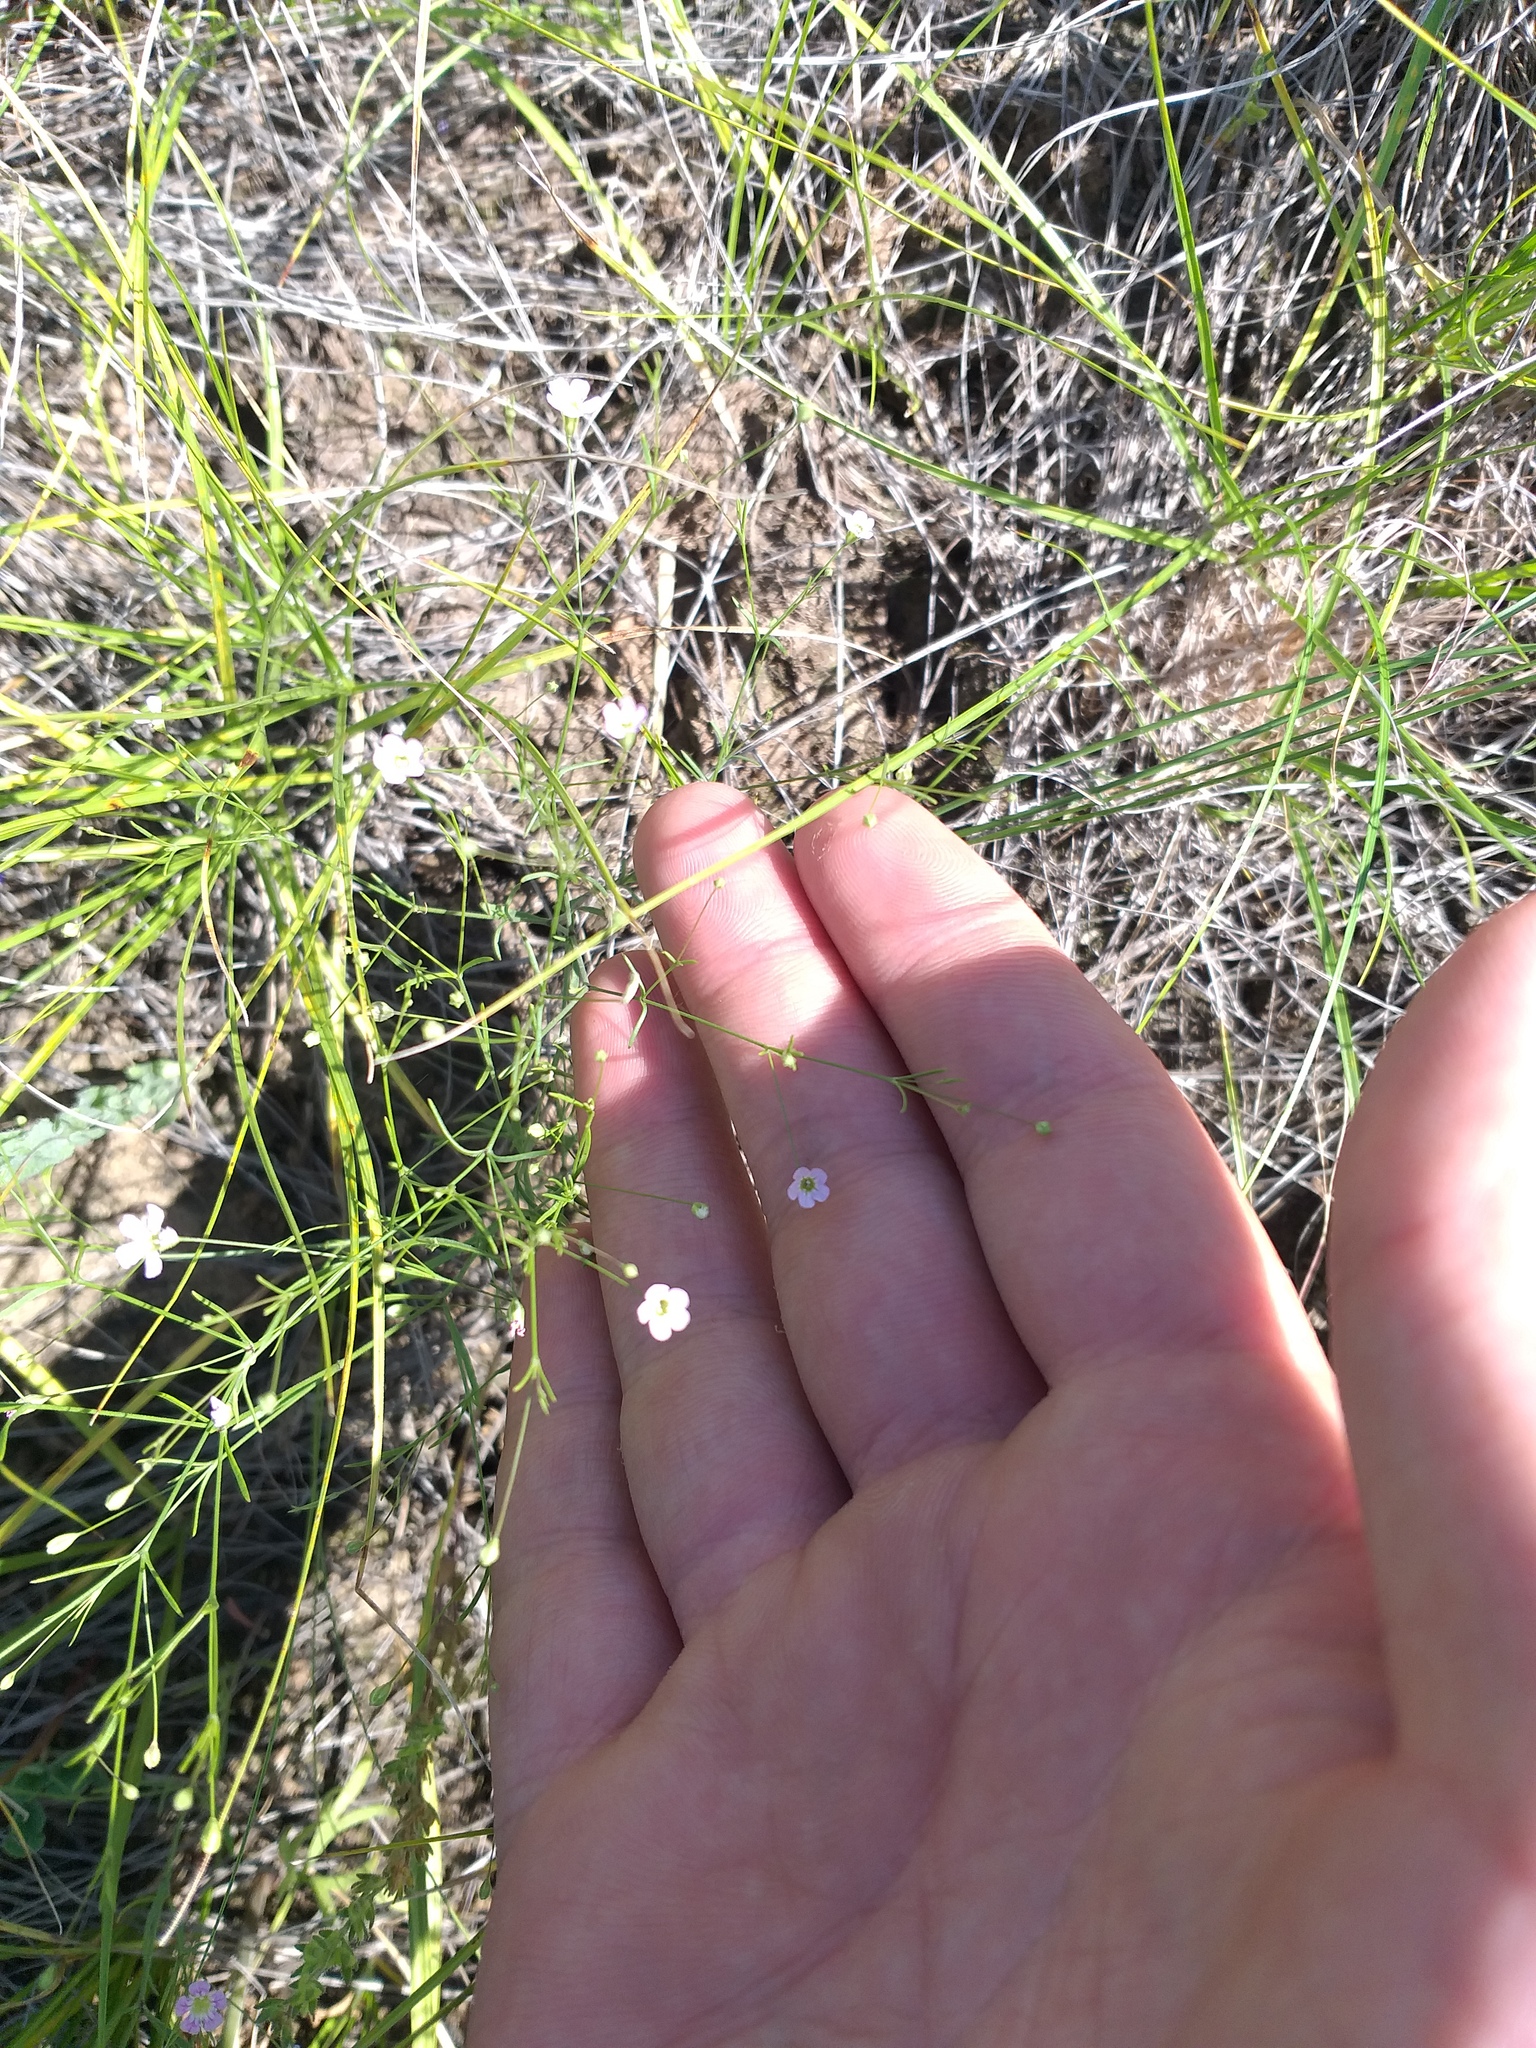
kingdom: Plantae
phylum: Tracheophyta
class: Magnoliopsida
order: Caryophyllales
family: Caryophyllaceae
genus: Psammophiliella
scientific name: Psammophiliella muralis
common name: Cushion baby's-breath
